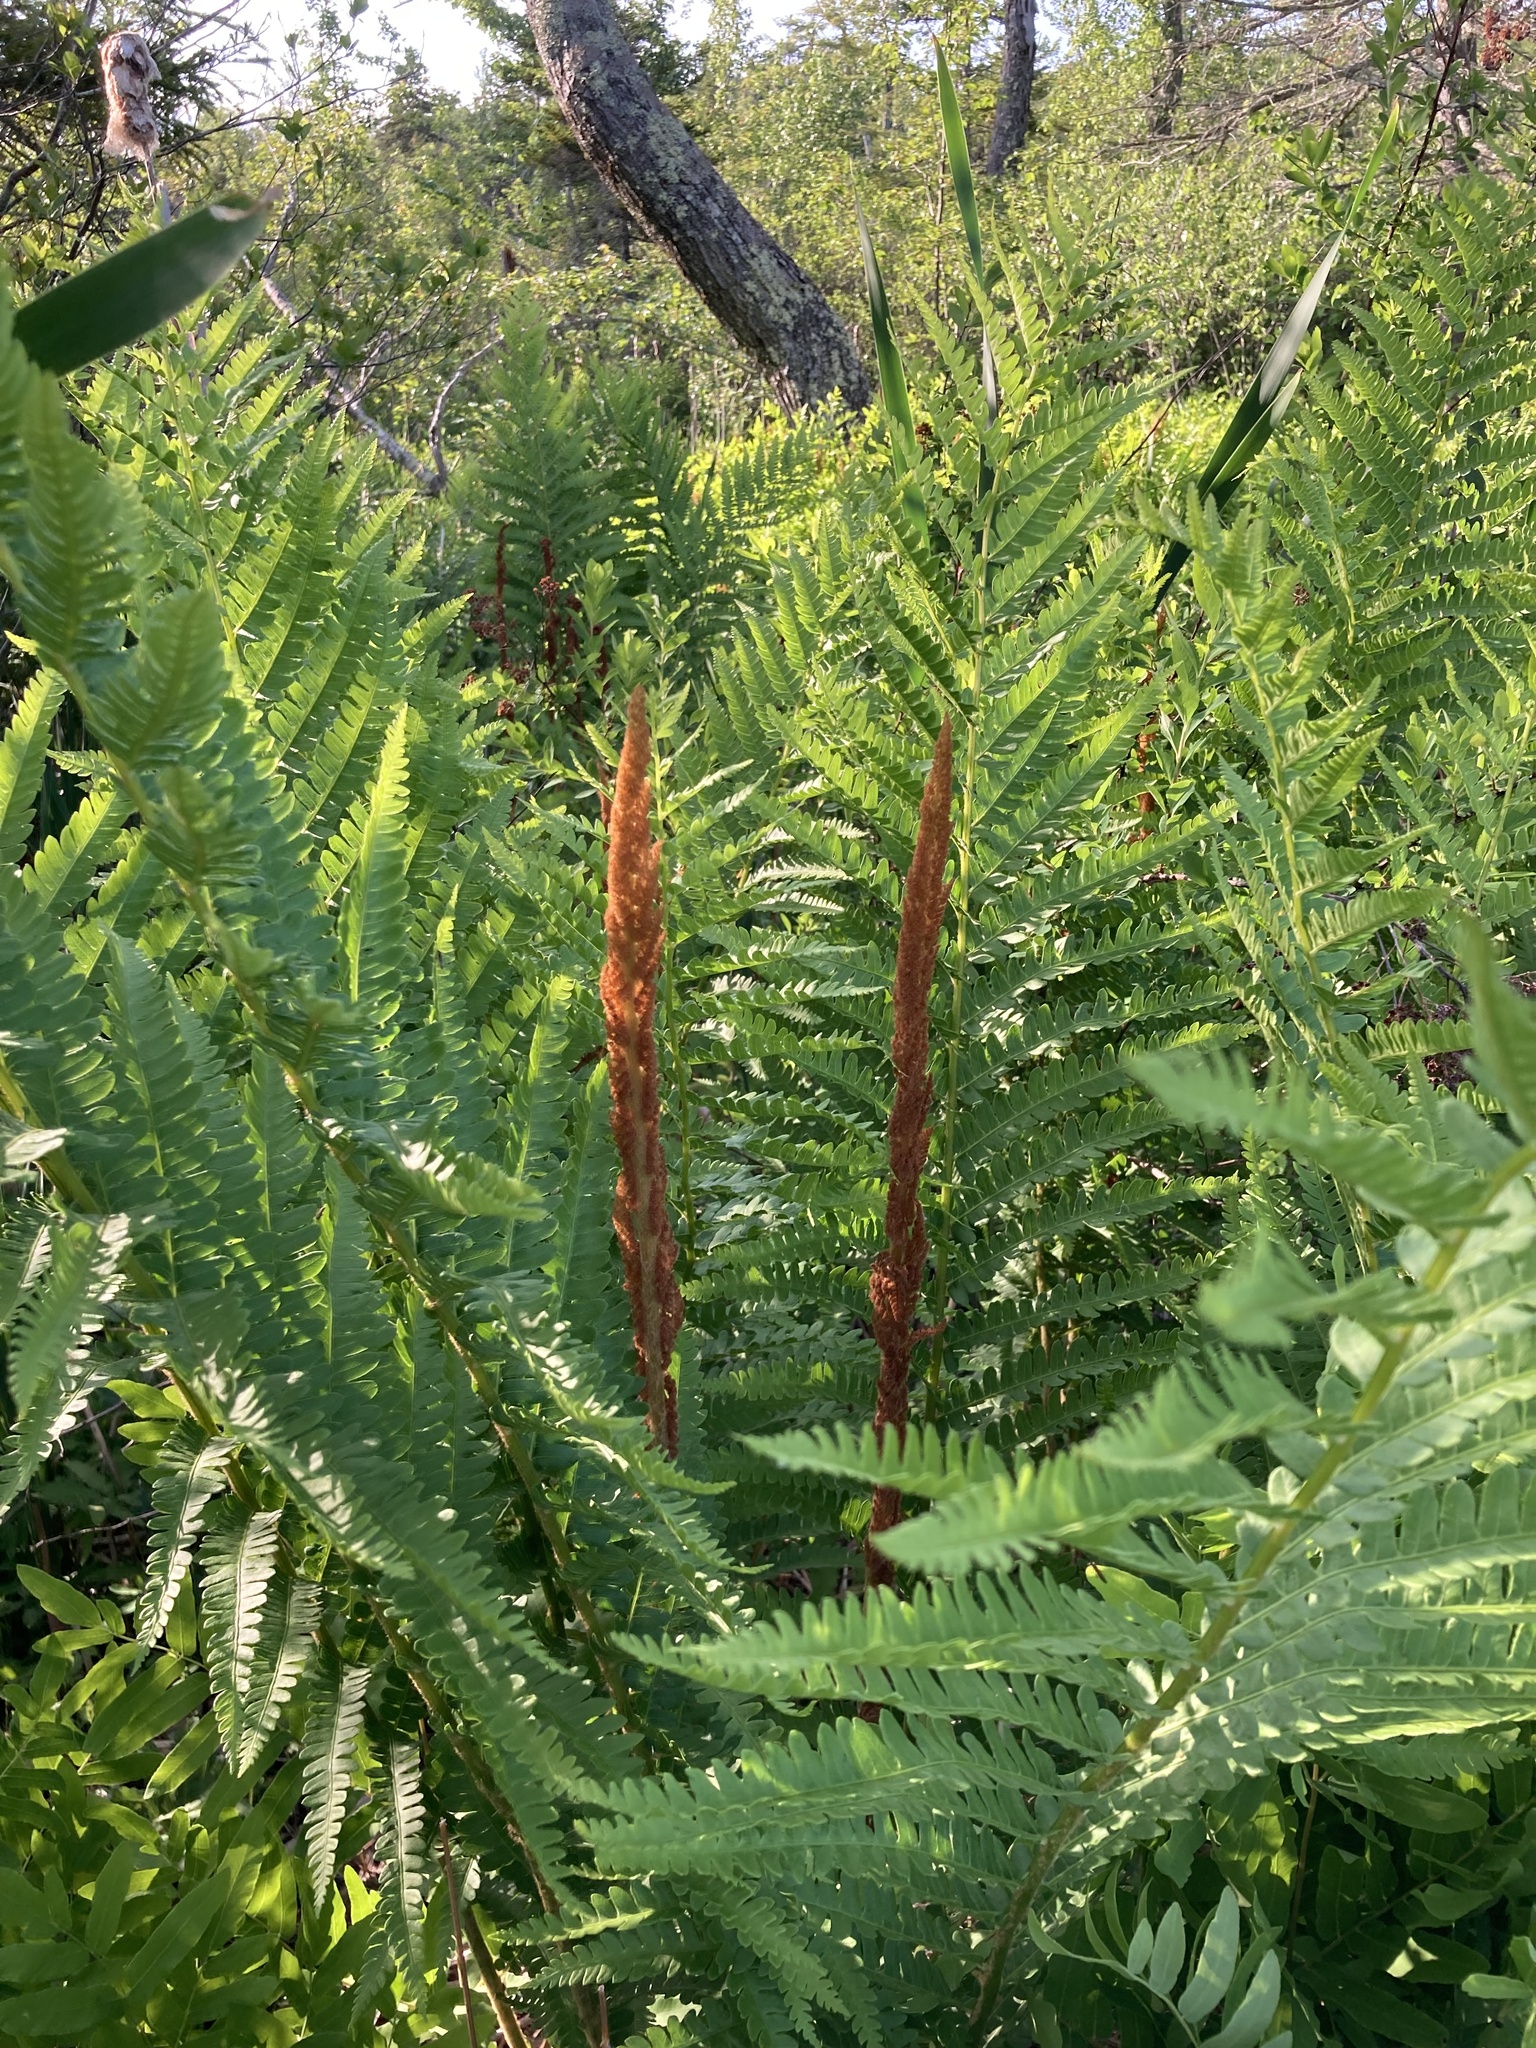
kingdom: Plantae
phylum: Tracheophyta
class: Polypodiopsida
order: Osmundales
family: Osmundaceae
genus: Osmundastrum
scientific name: Osmundastrum cinnamomeum
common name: Cinnamon fern
